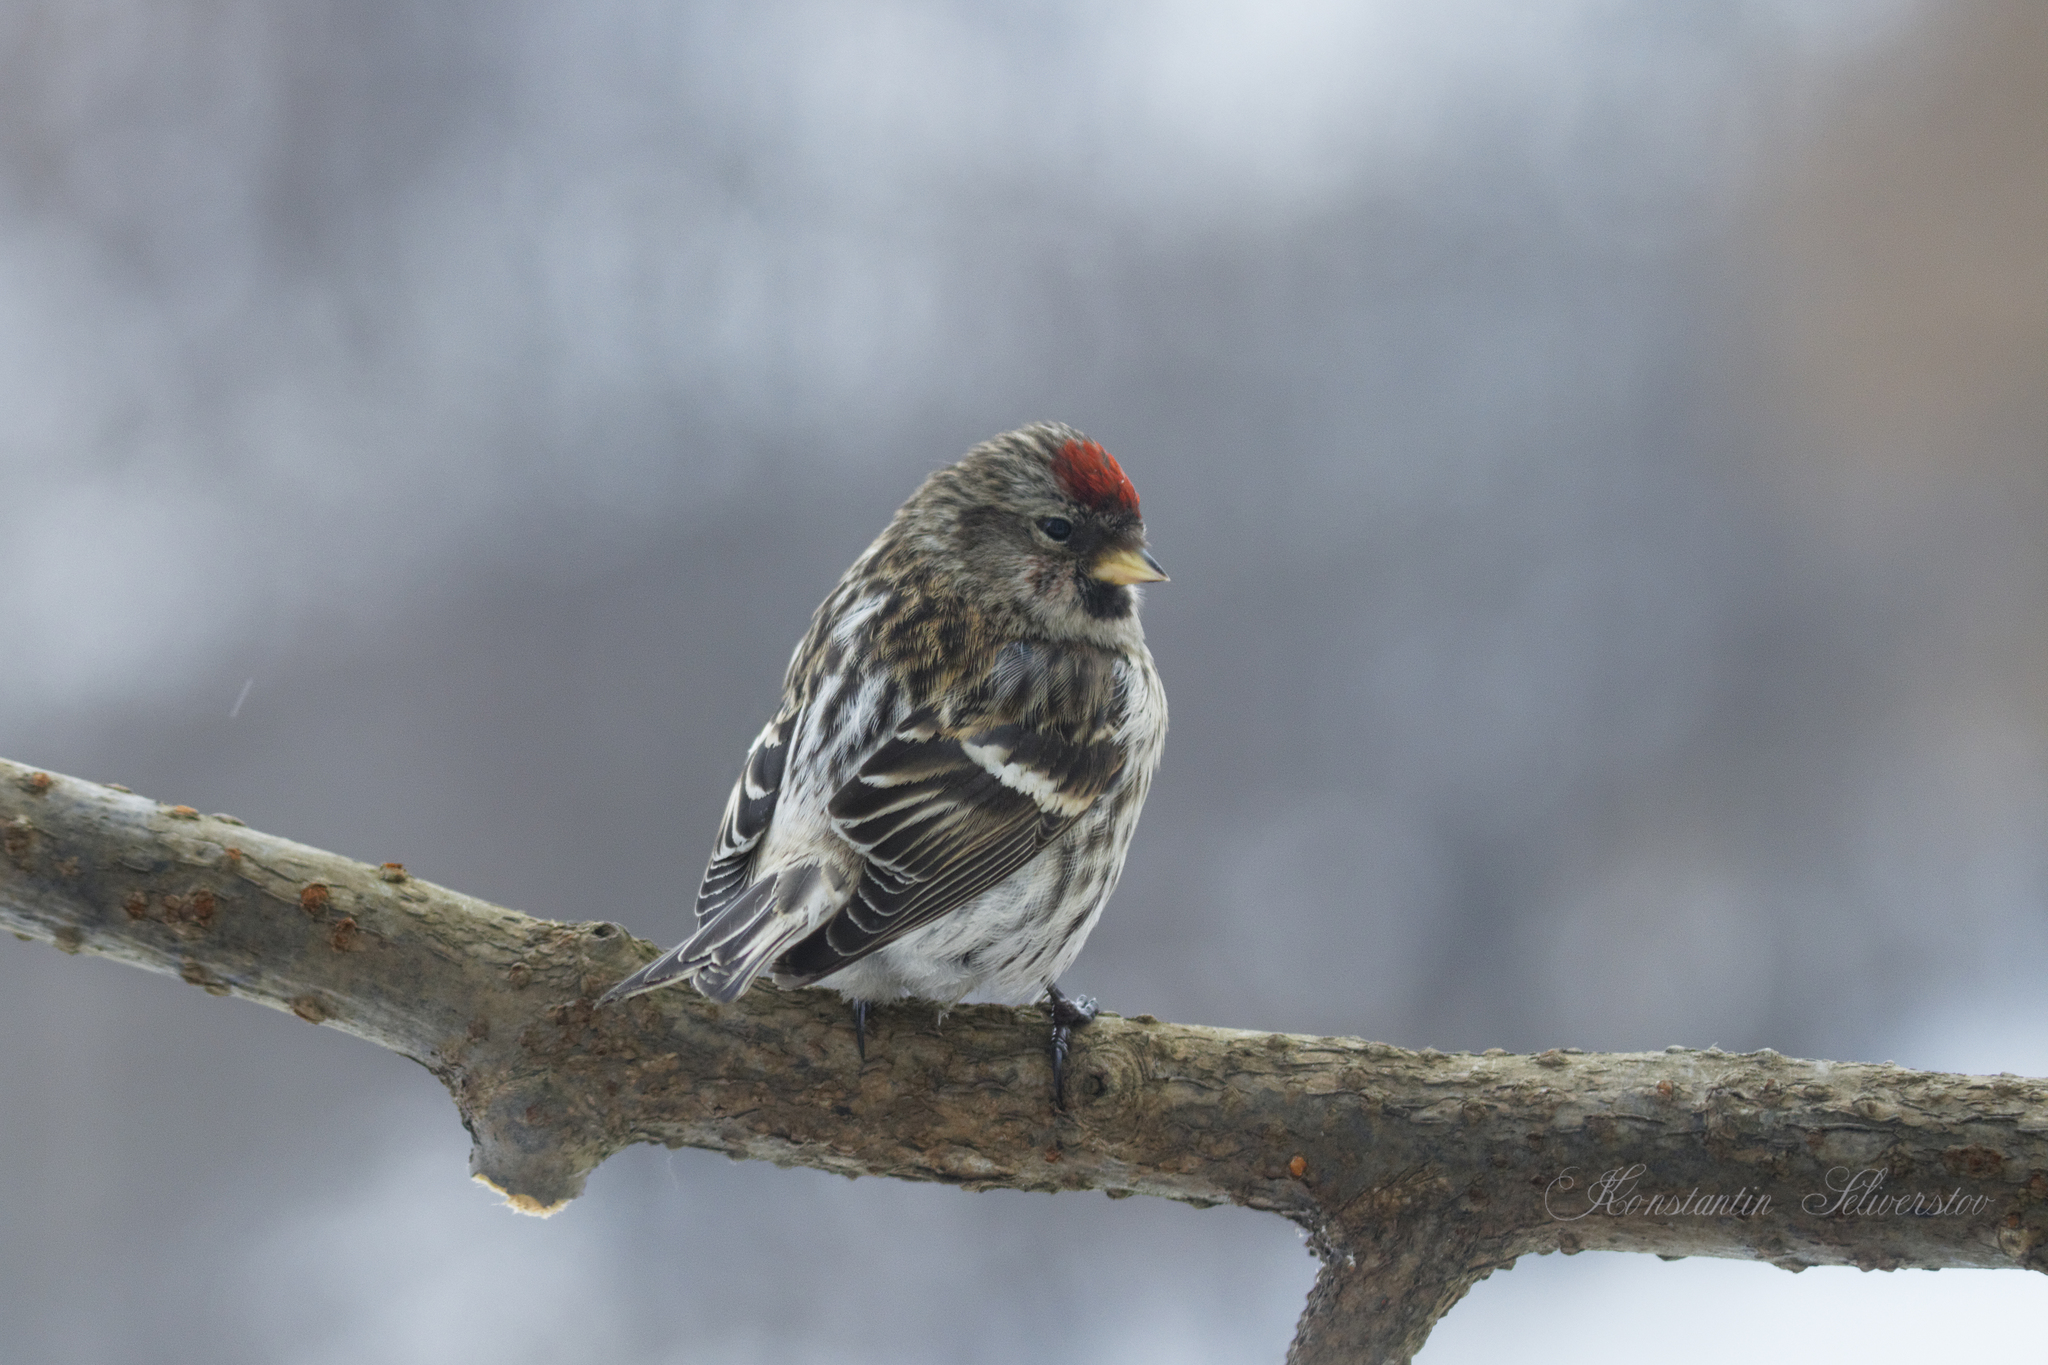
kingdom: Animalia
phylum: Chordata
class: Aves
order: Passeriformes
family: Fringillidae
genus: Acanthis
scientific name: Acanthis flammea
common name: Common redpoll
